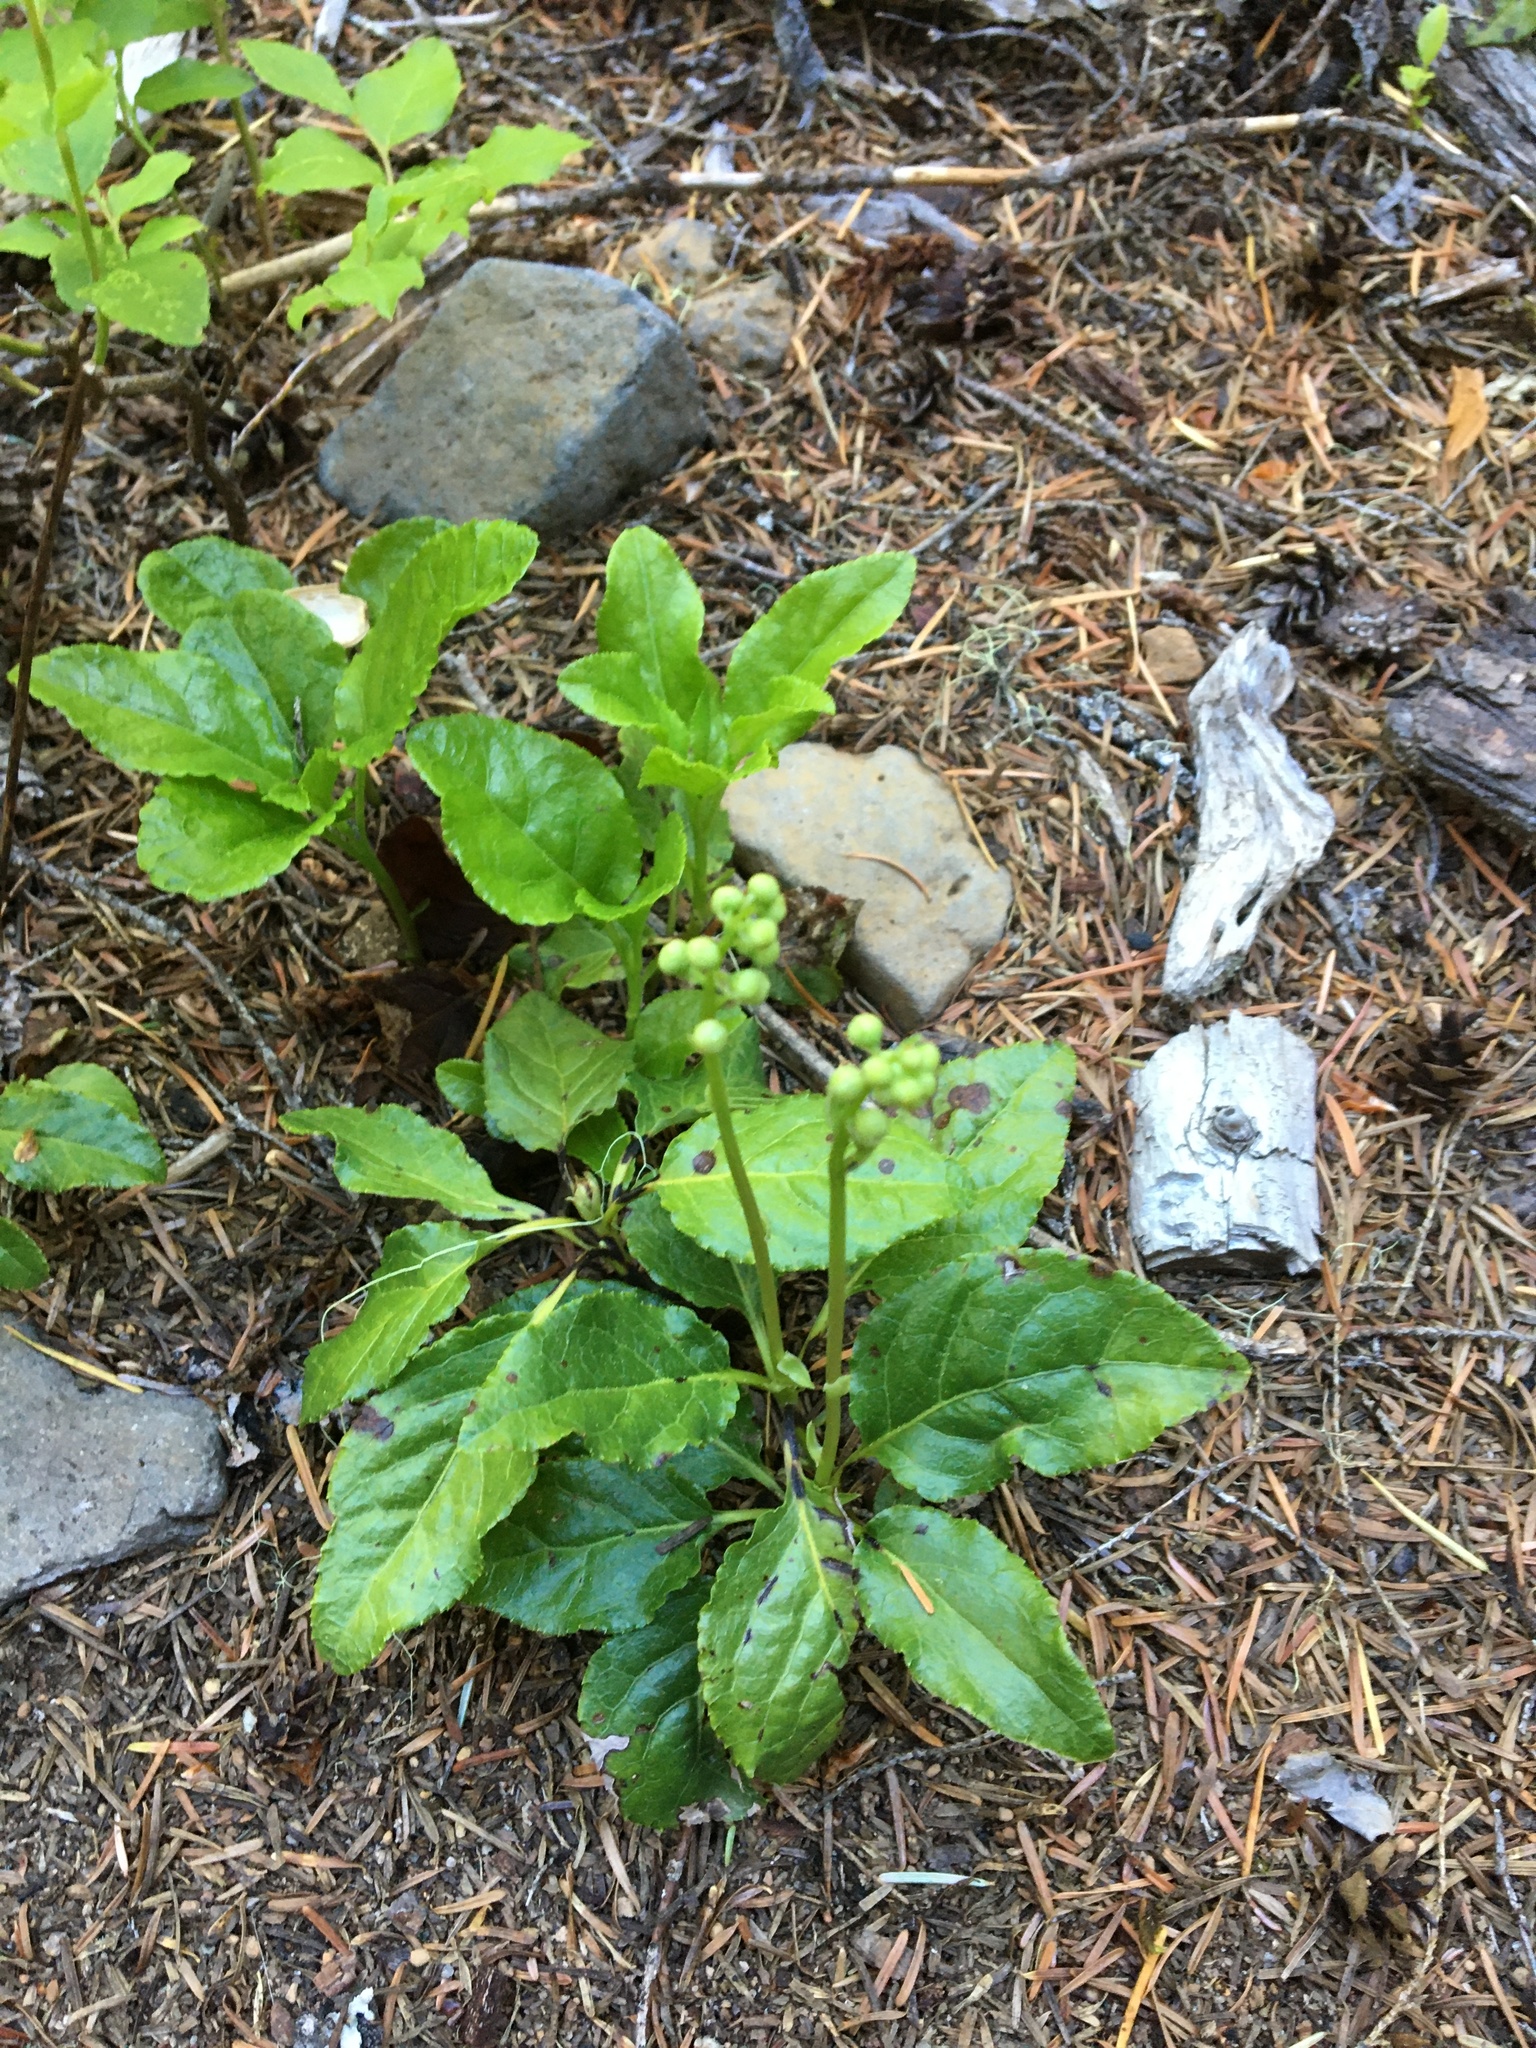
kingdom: Plantae
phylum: Tracheophyta
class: Magnoliopsida
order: Ericales
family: Ericaceae
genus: Orthilia
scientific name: Orthilia secunda
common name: One-sided orthilia
